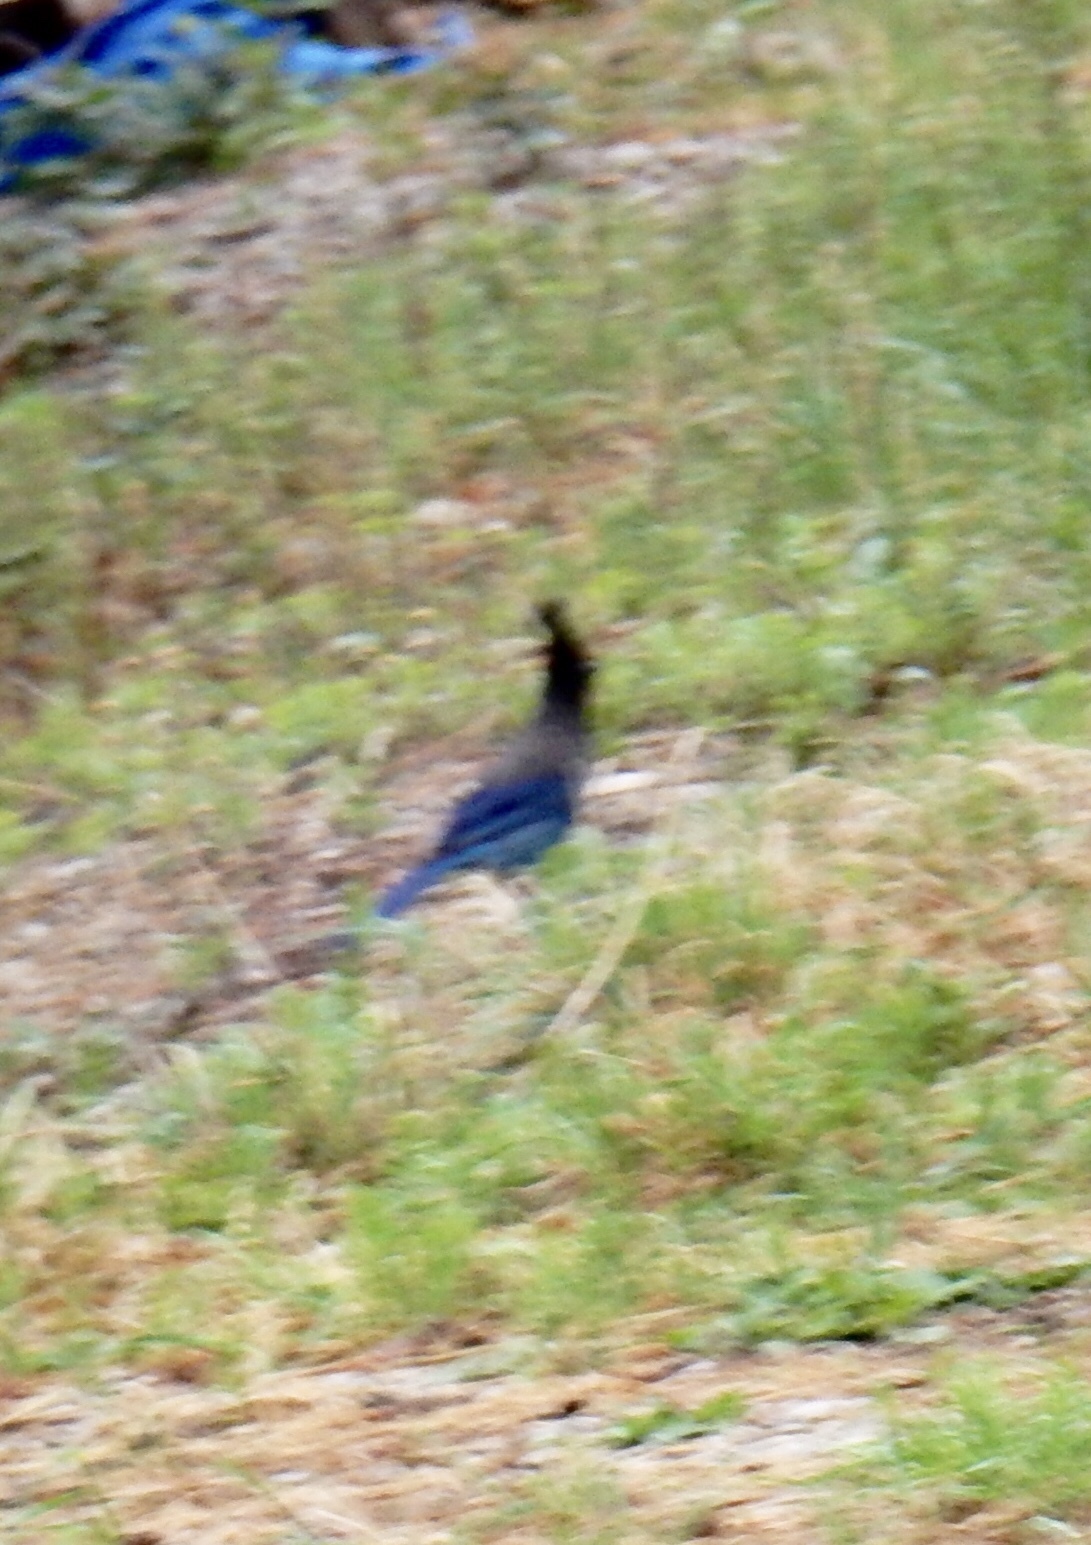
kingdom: Animalia
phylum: Chordata
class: Aves
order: Passeriformes
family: Corvidae
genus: Cyanocitta
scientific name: Cyanocitta stelleri
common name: Steller's jay
